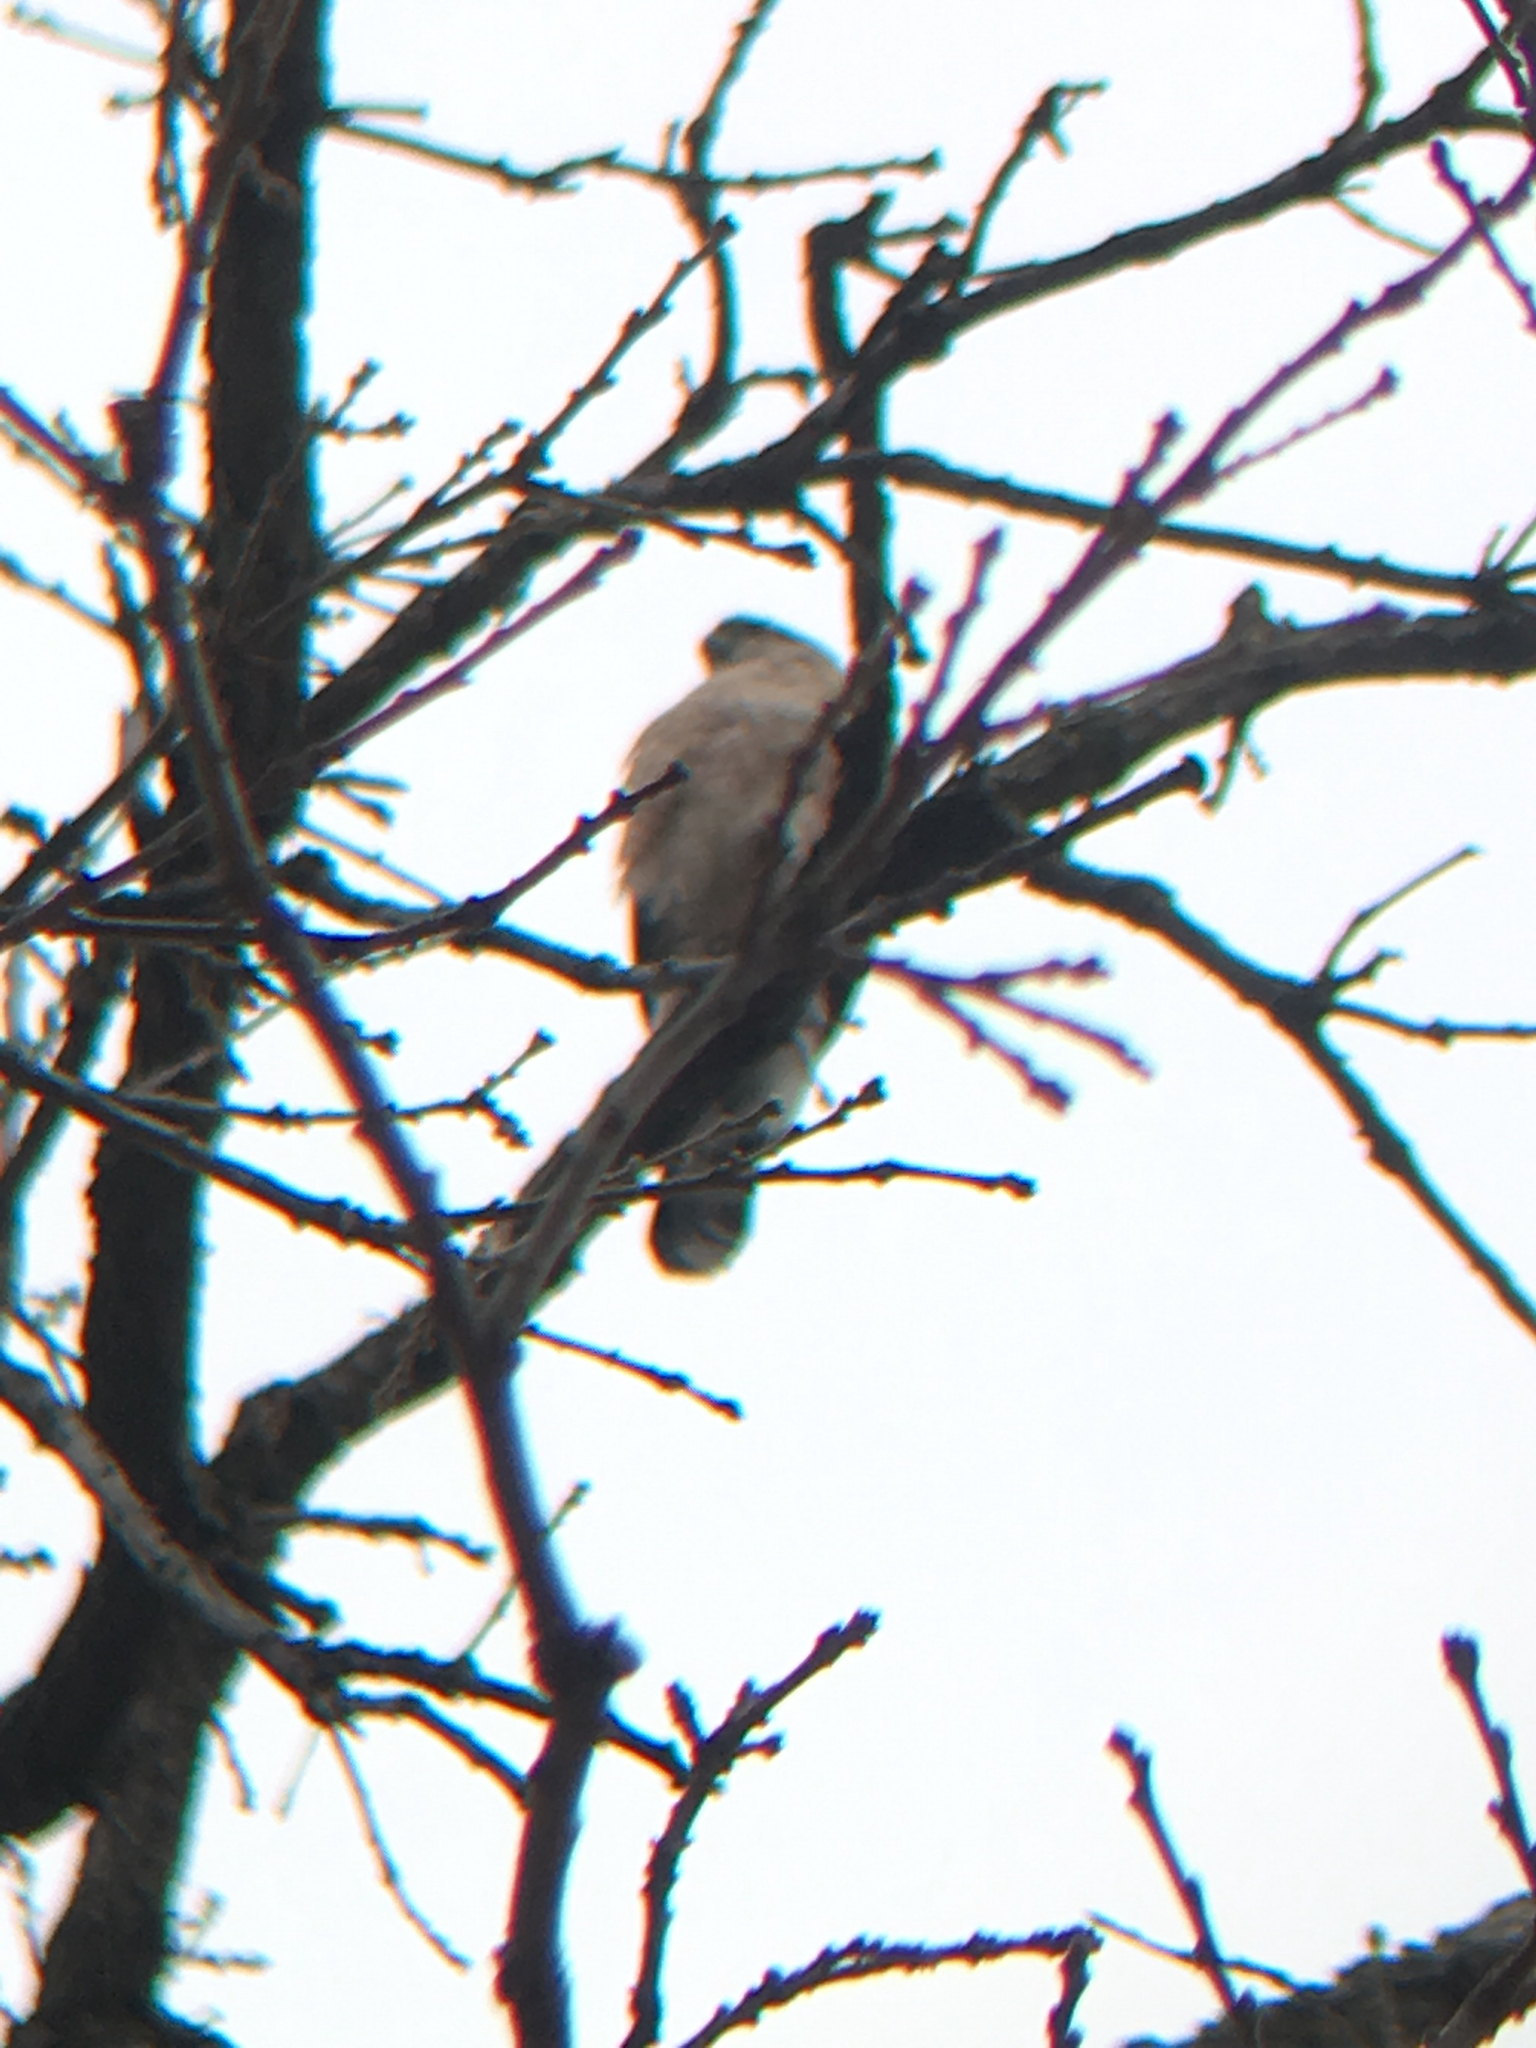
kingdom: Animalia
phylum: Chordata
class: Aves
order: Accipitriformes
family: Accipitridae
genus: Accipiter
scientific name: Accipiter cooperii
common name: Cooper's hawk
